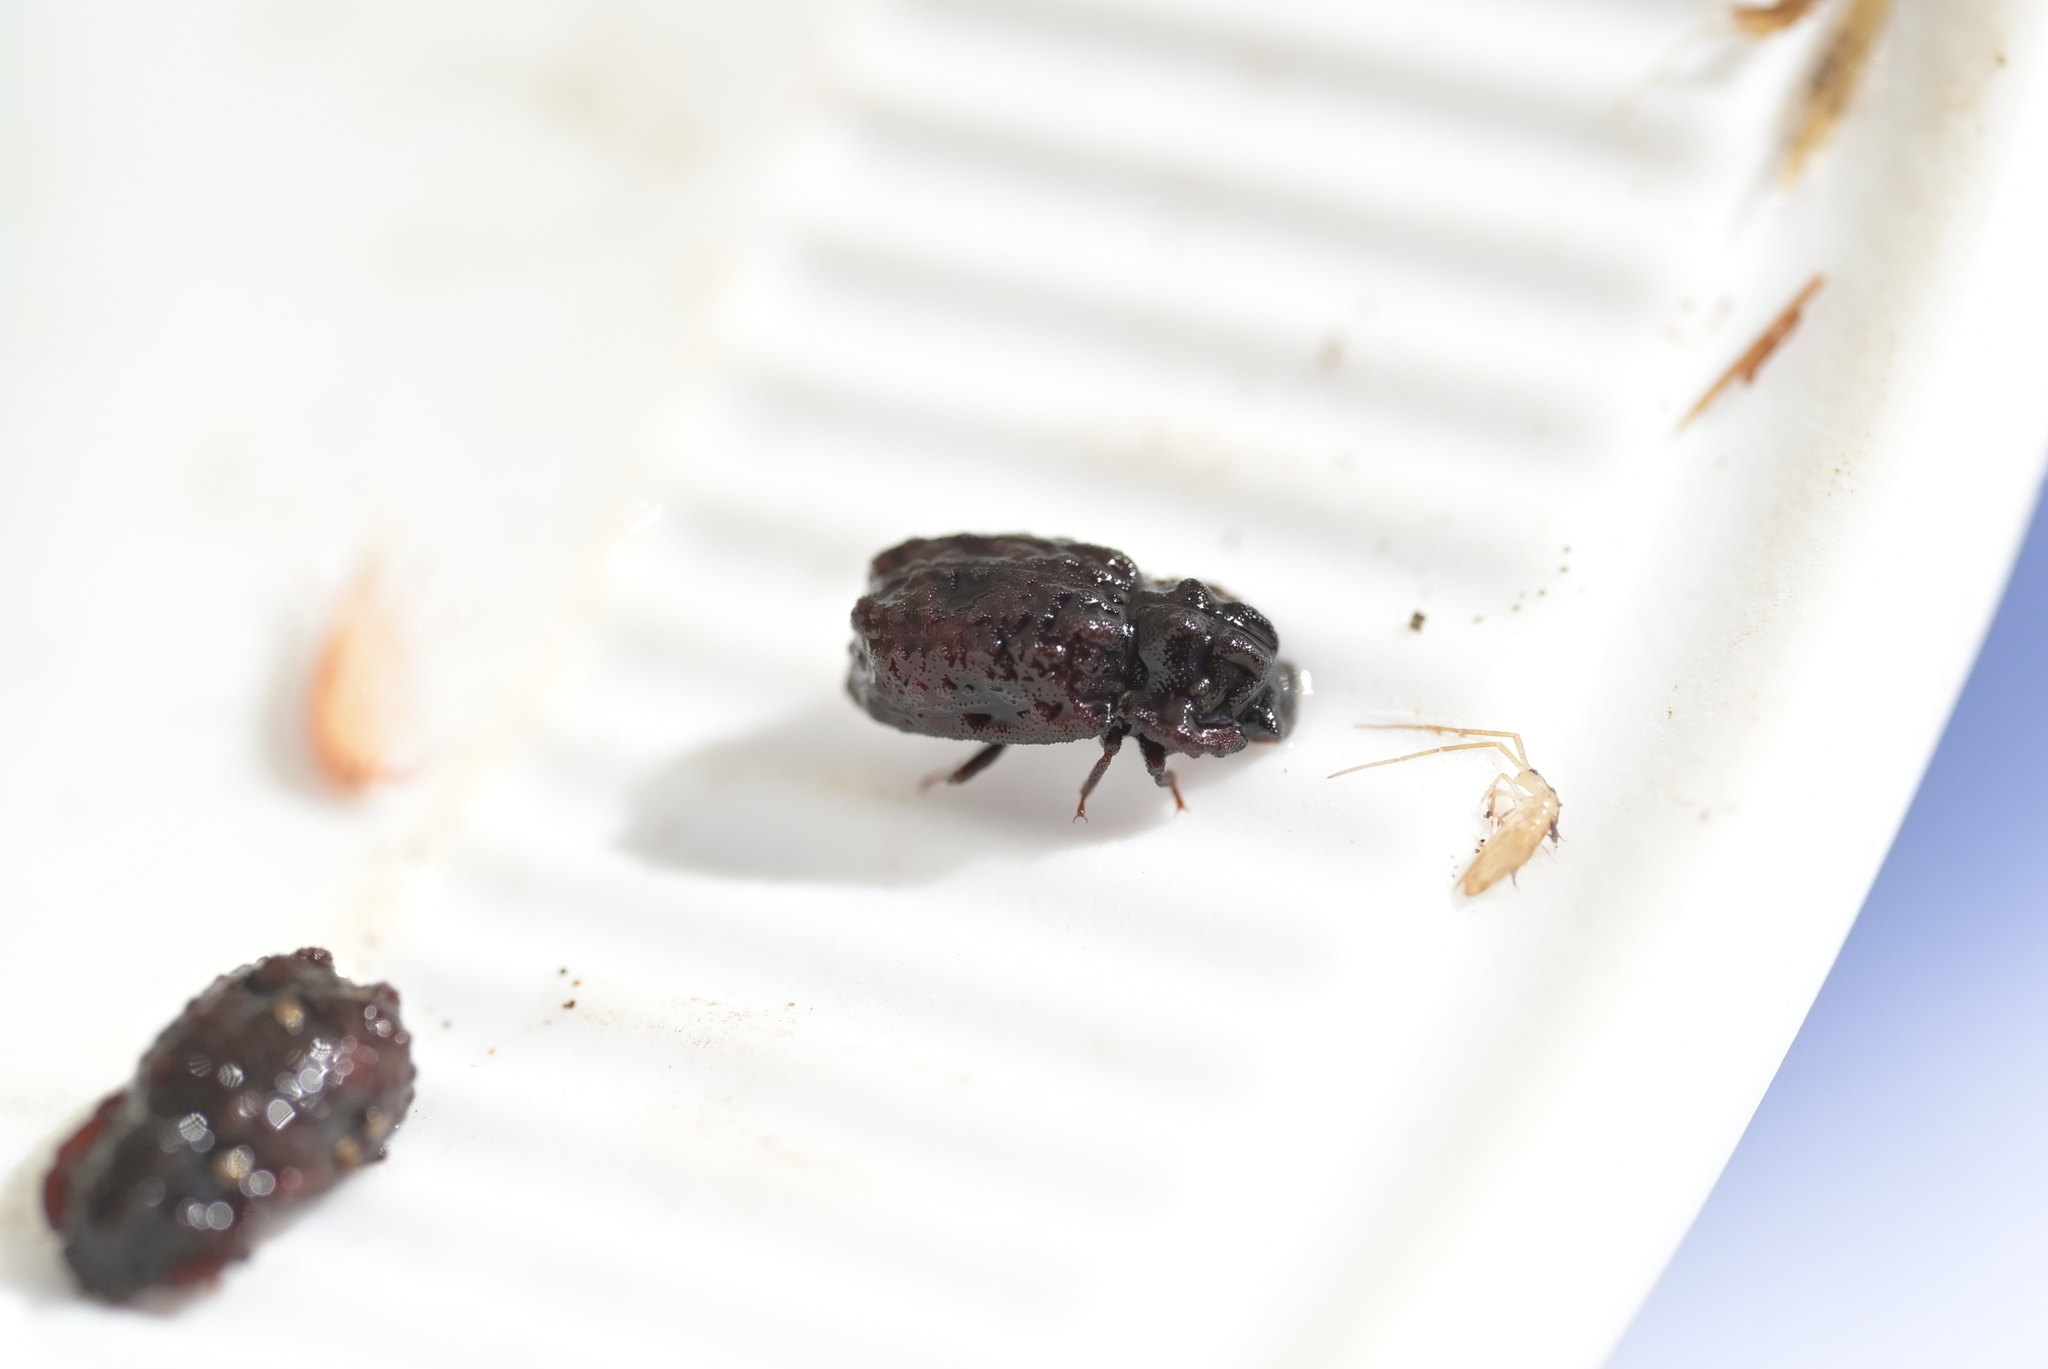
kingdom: Animalia
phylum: Arthropoda
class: Insecta
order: Coleoptera
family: Zopheridae
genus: Pristoderus
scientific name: Pristoderus
